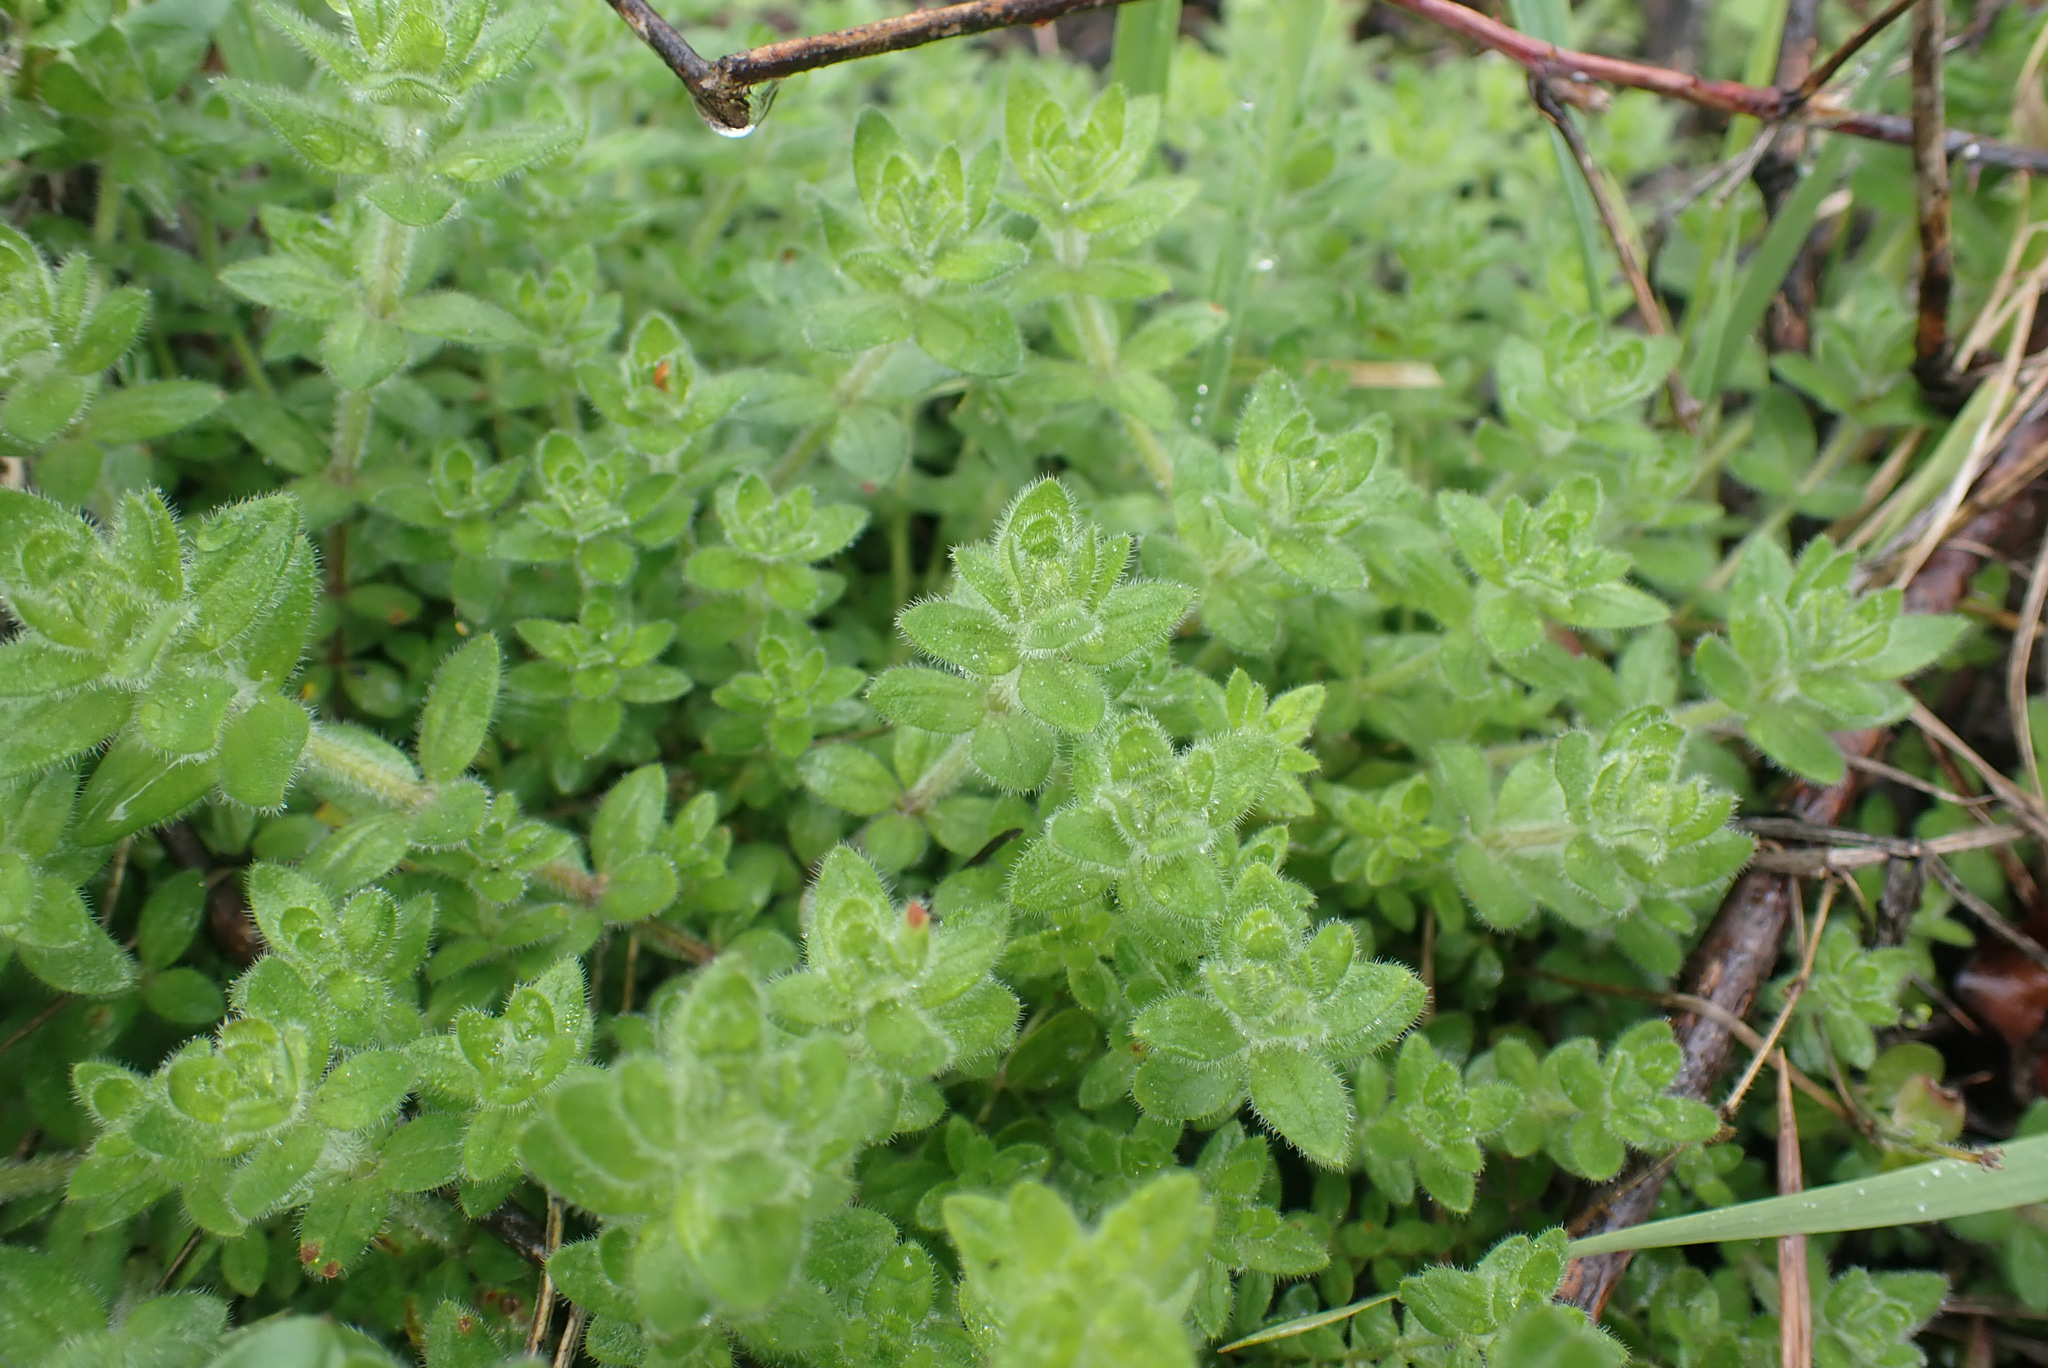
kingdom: Plantae
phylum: Tracheophyta
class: Magnoliopsida
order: Gentianales
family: Rubiaceae
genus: Cruciata
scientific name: Cruciata laevipes
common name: Crosswort
